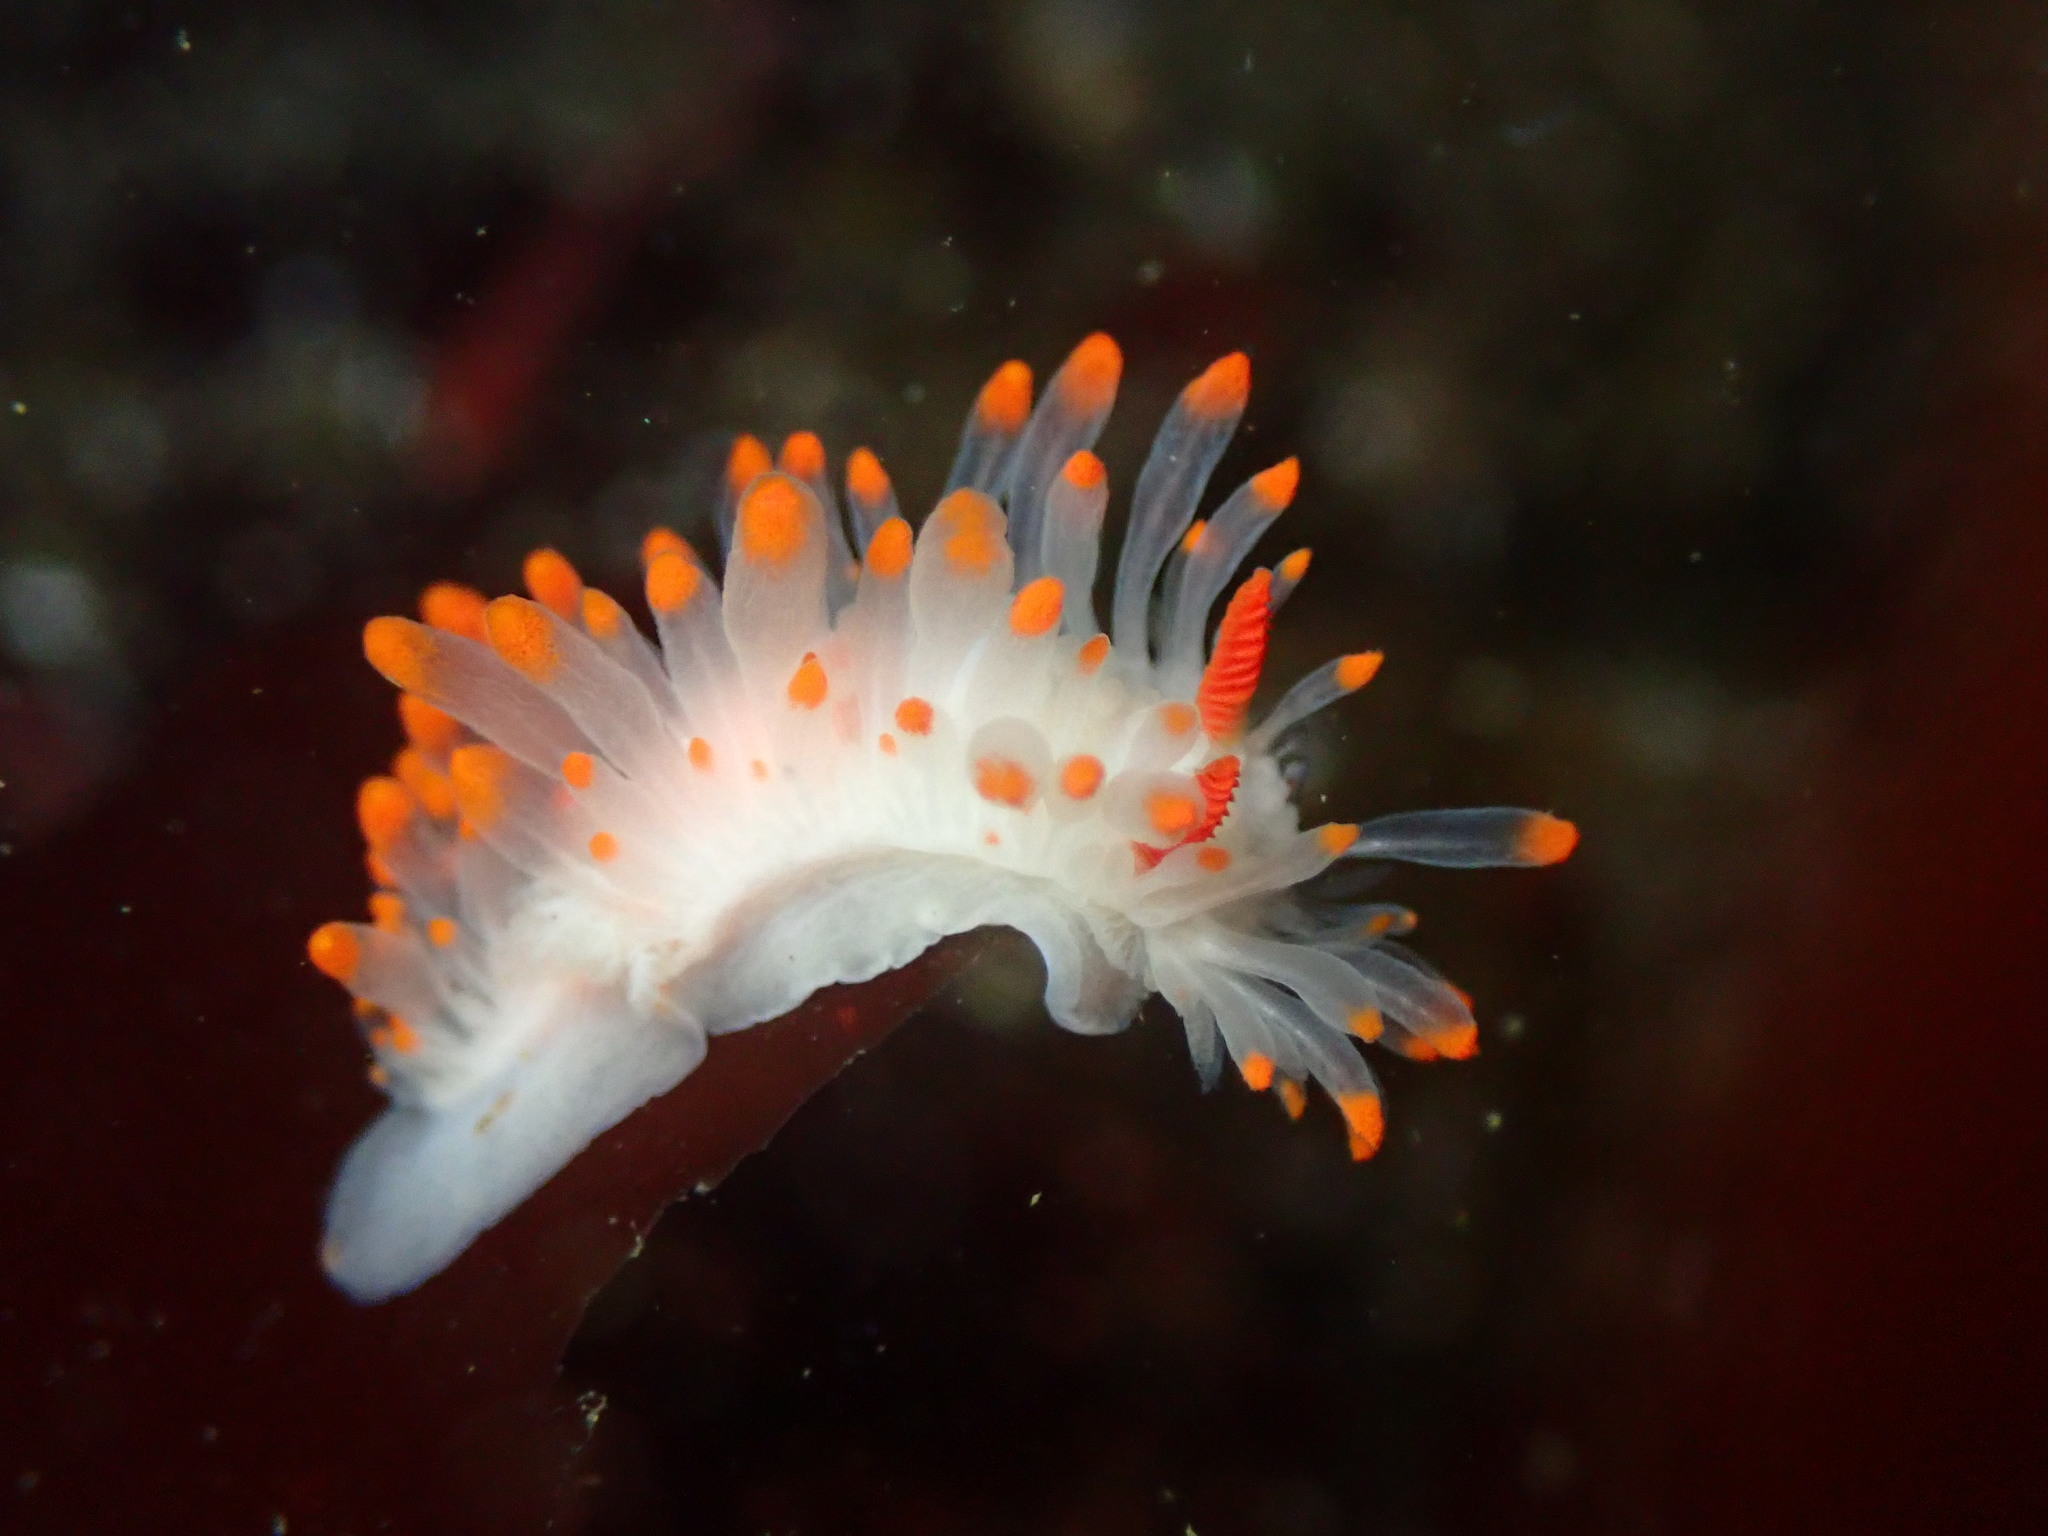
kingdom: Animalia
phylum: Mollusca
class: Gastropoda
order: Nudibranchia
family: Polyceridae
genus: Limacia
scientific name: Limacia cockerelli
